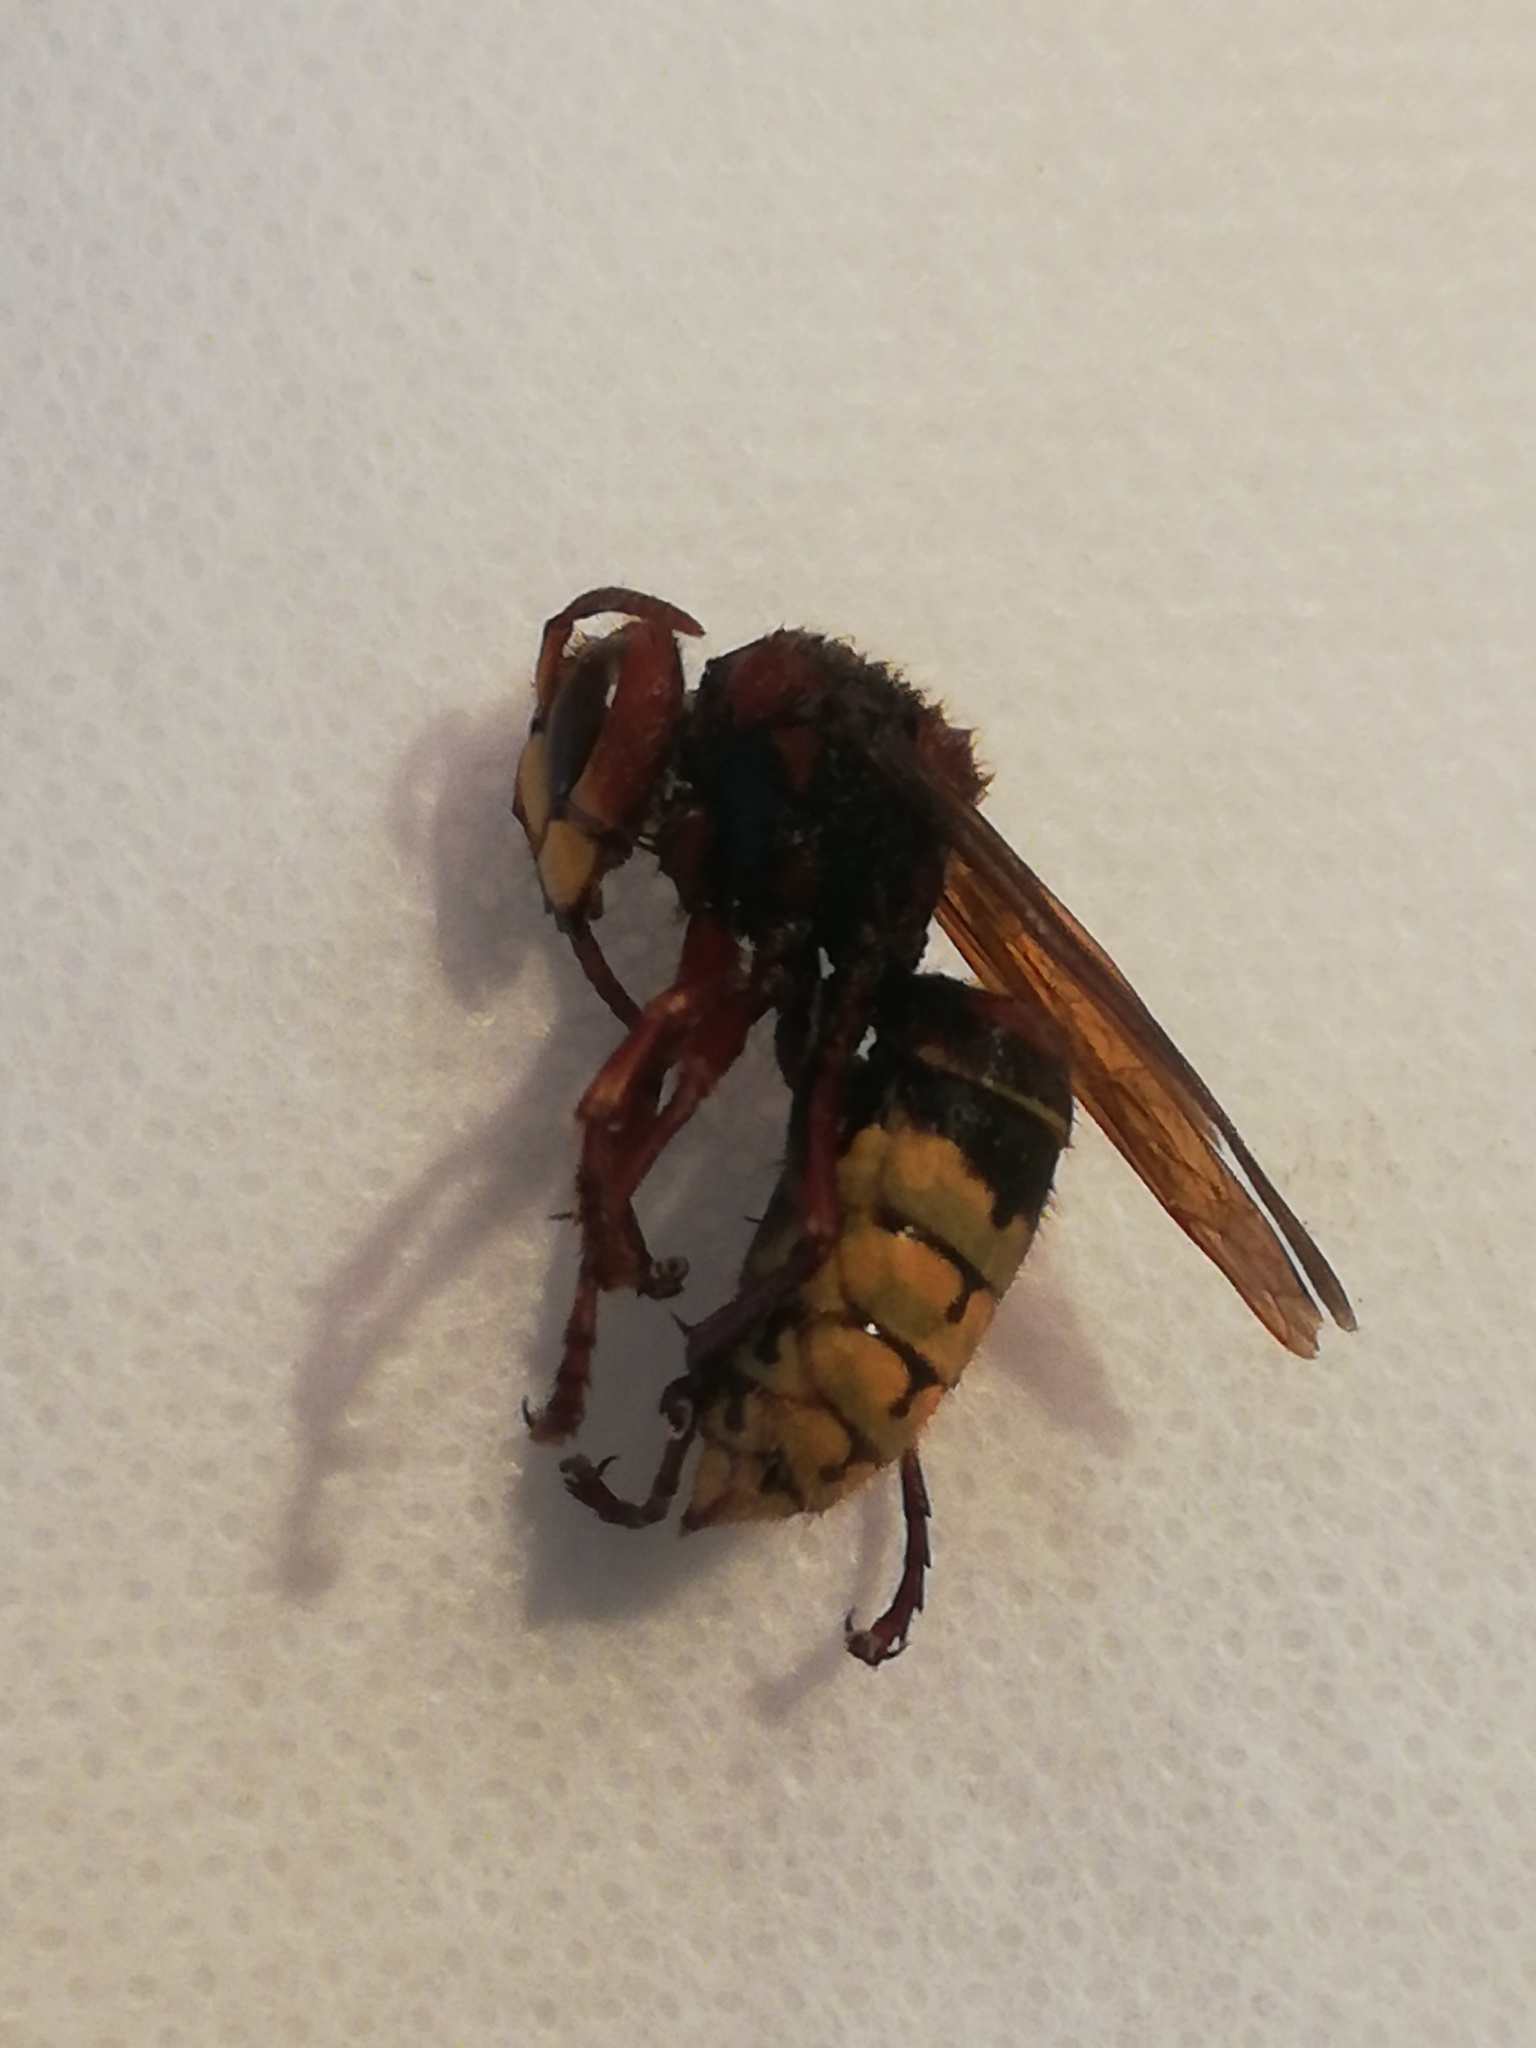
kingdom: Animalia
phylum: Arthropoda
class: Insecta
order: Hymenoptera
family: Vespidae
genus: Vespa
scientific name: Vespa crabro
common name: Hornet
